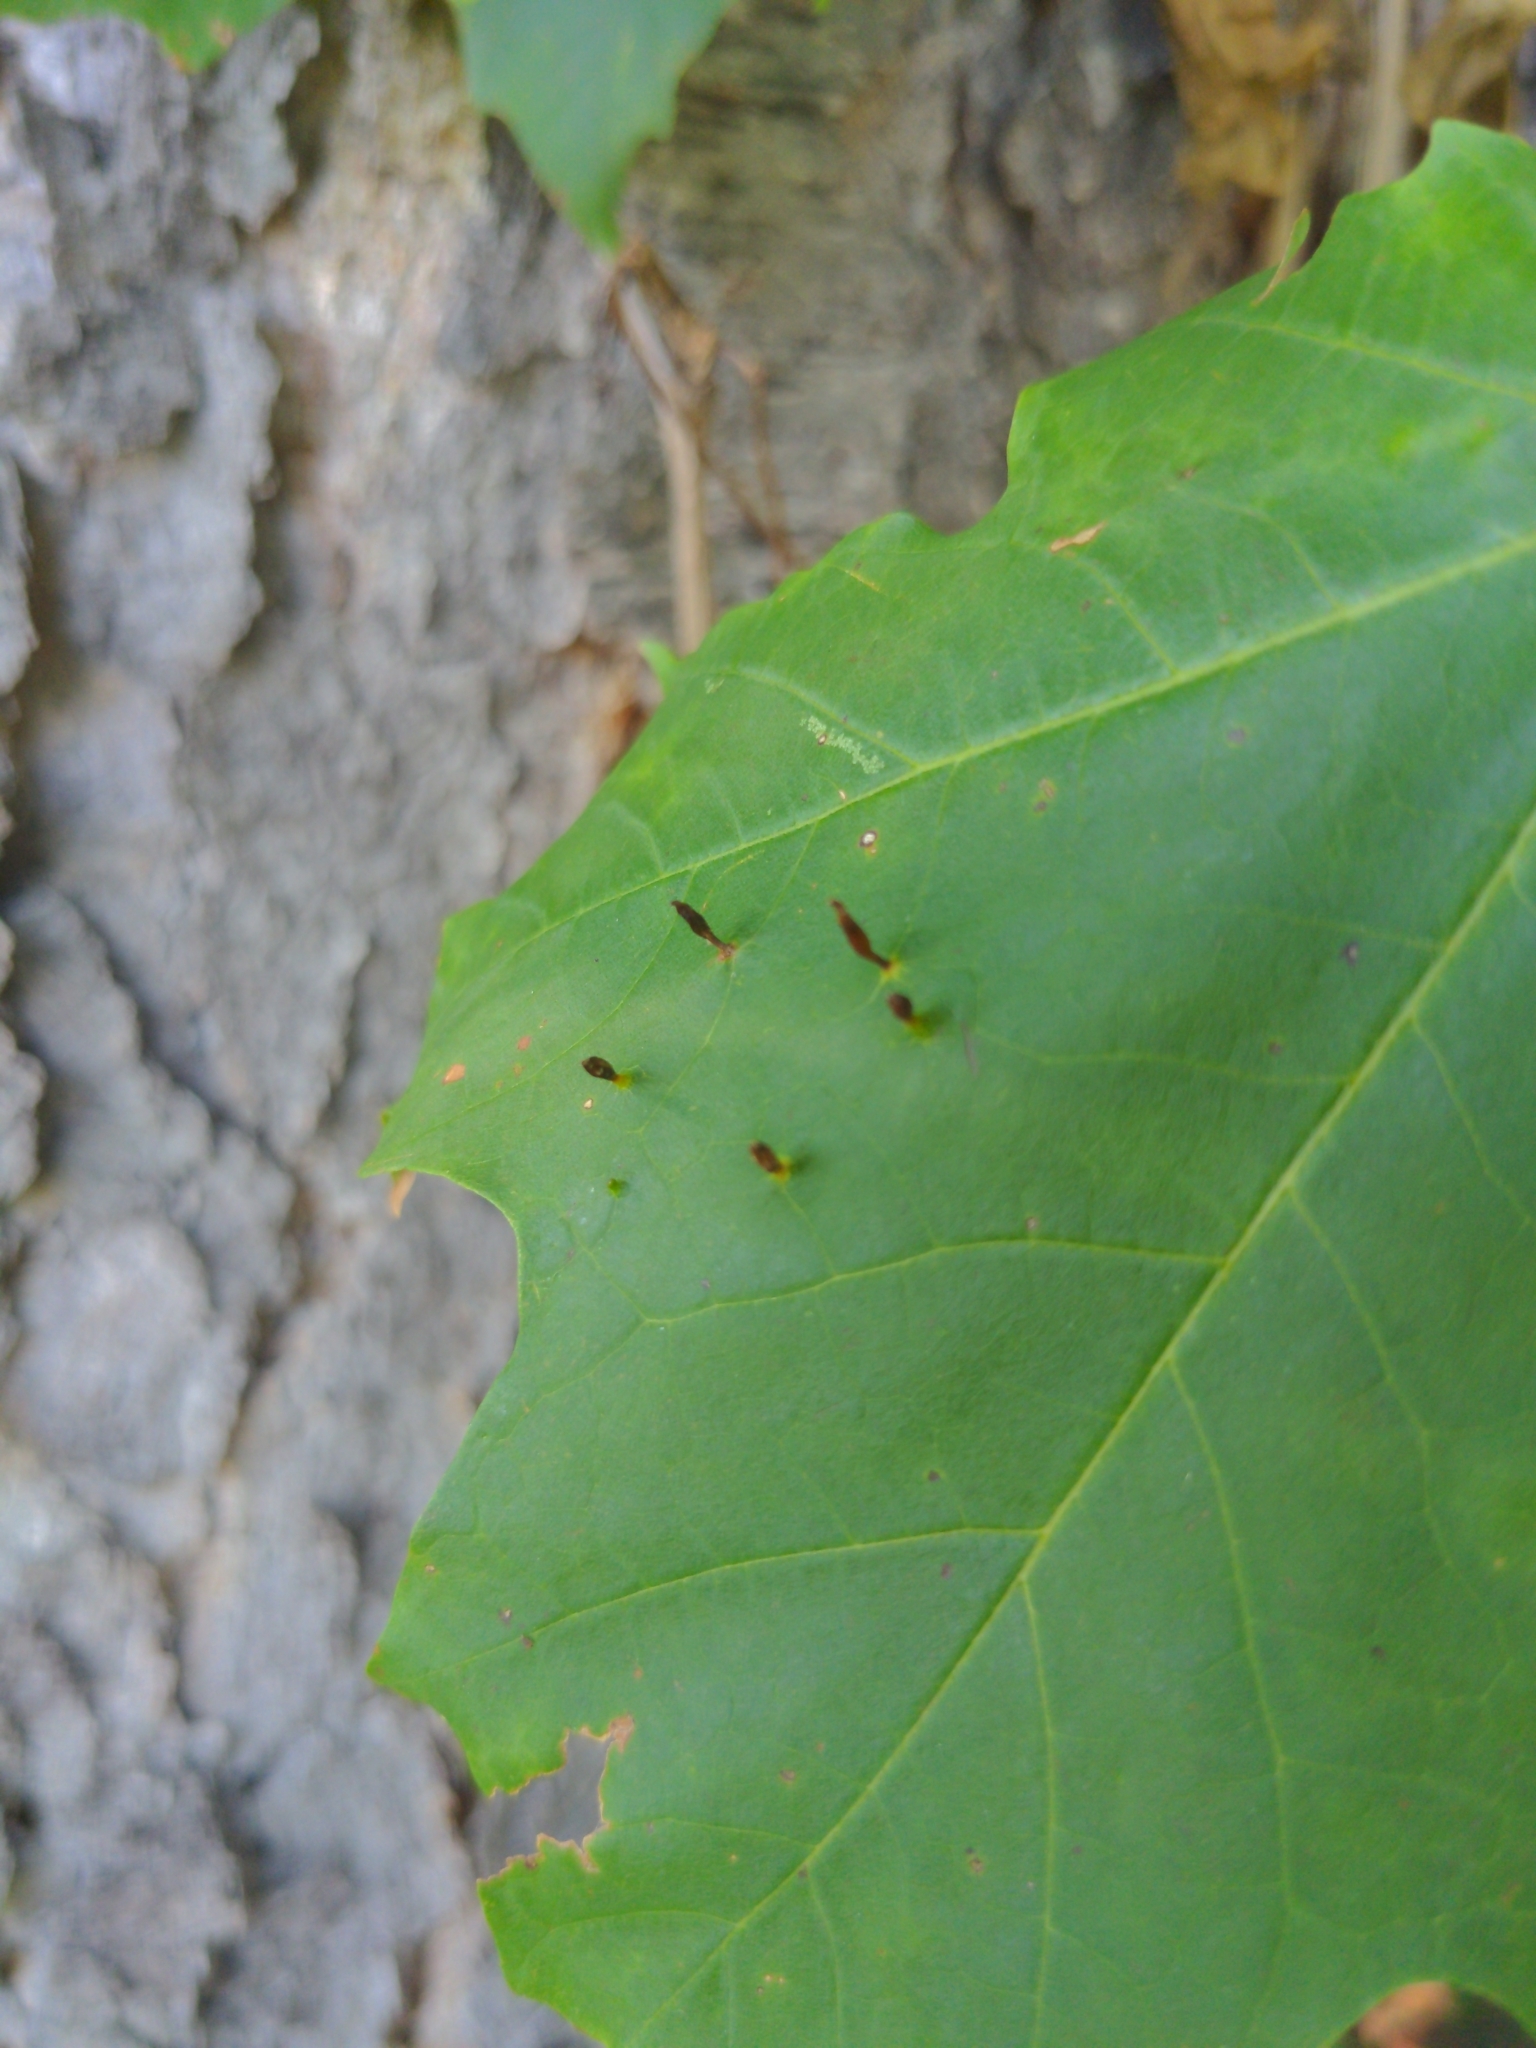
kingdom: Animalia
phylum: Arthropoda
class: Arachnida
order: Trombidiformes
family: Eriophyidae
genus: Vasates
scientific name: Vasates aceriscrumena
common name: Maple spindle gall mite
